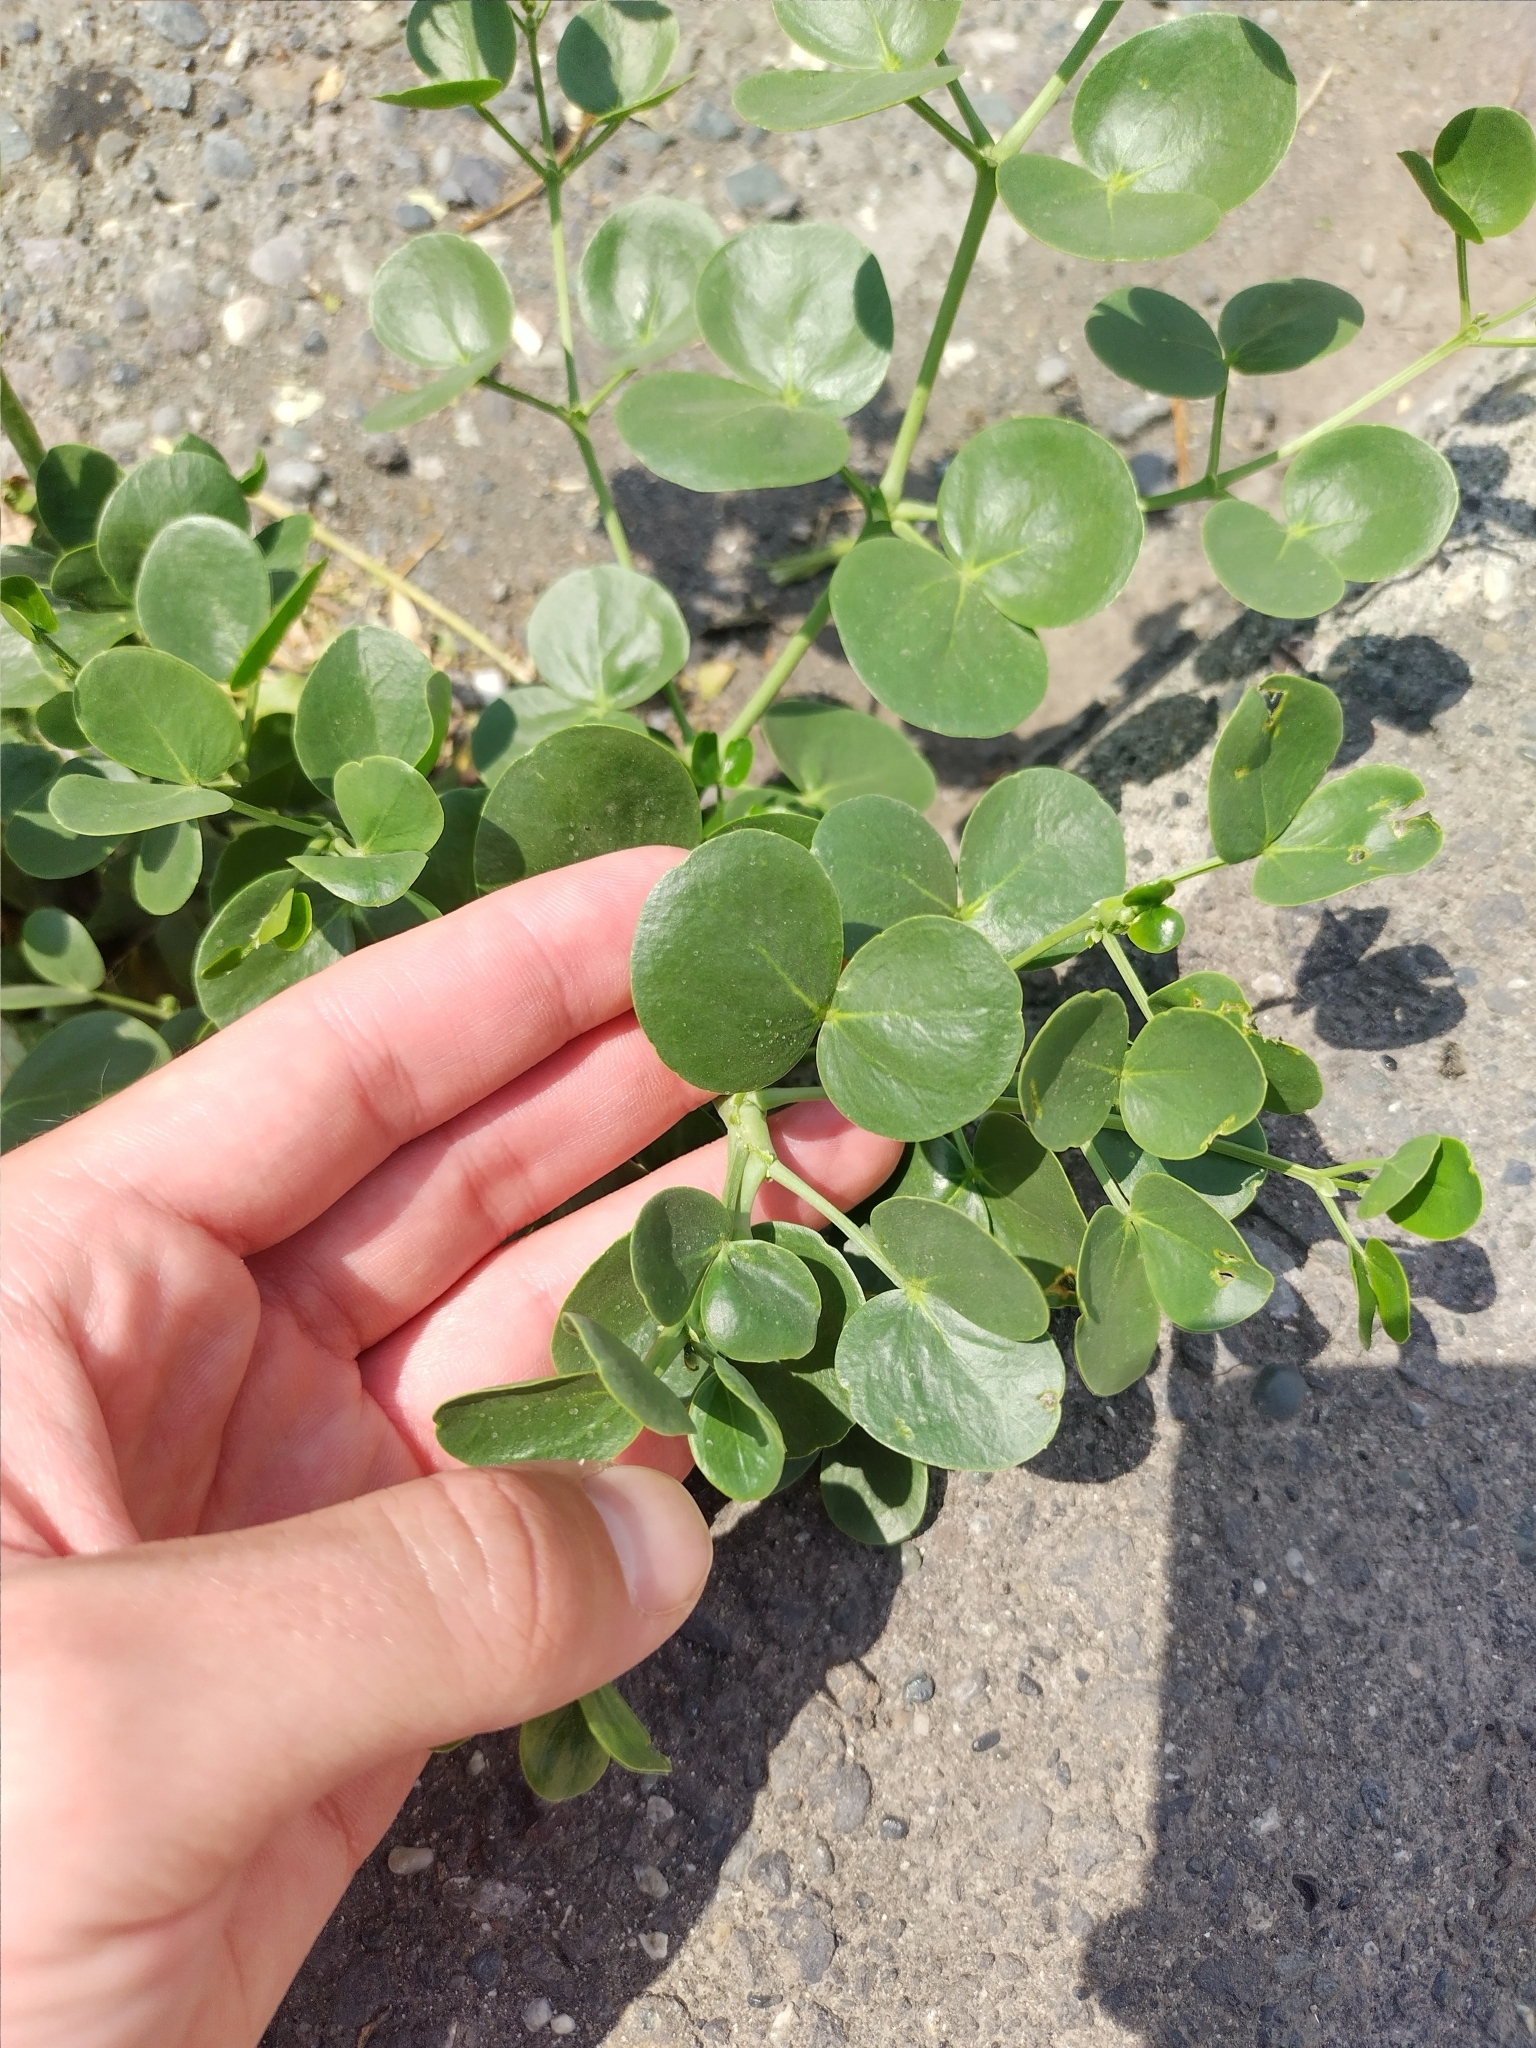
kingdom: Plantae
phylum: Tracheophyta
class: Magnoliopsida
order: Zygophyllales
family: Zygophyllaceae
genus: Zygophyllum
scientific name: Zygophyllum fabago
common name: Syrian beancaper
